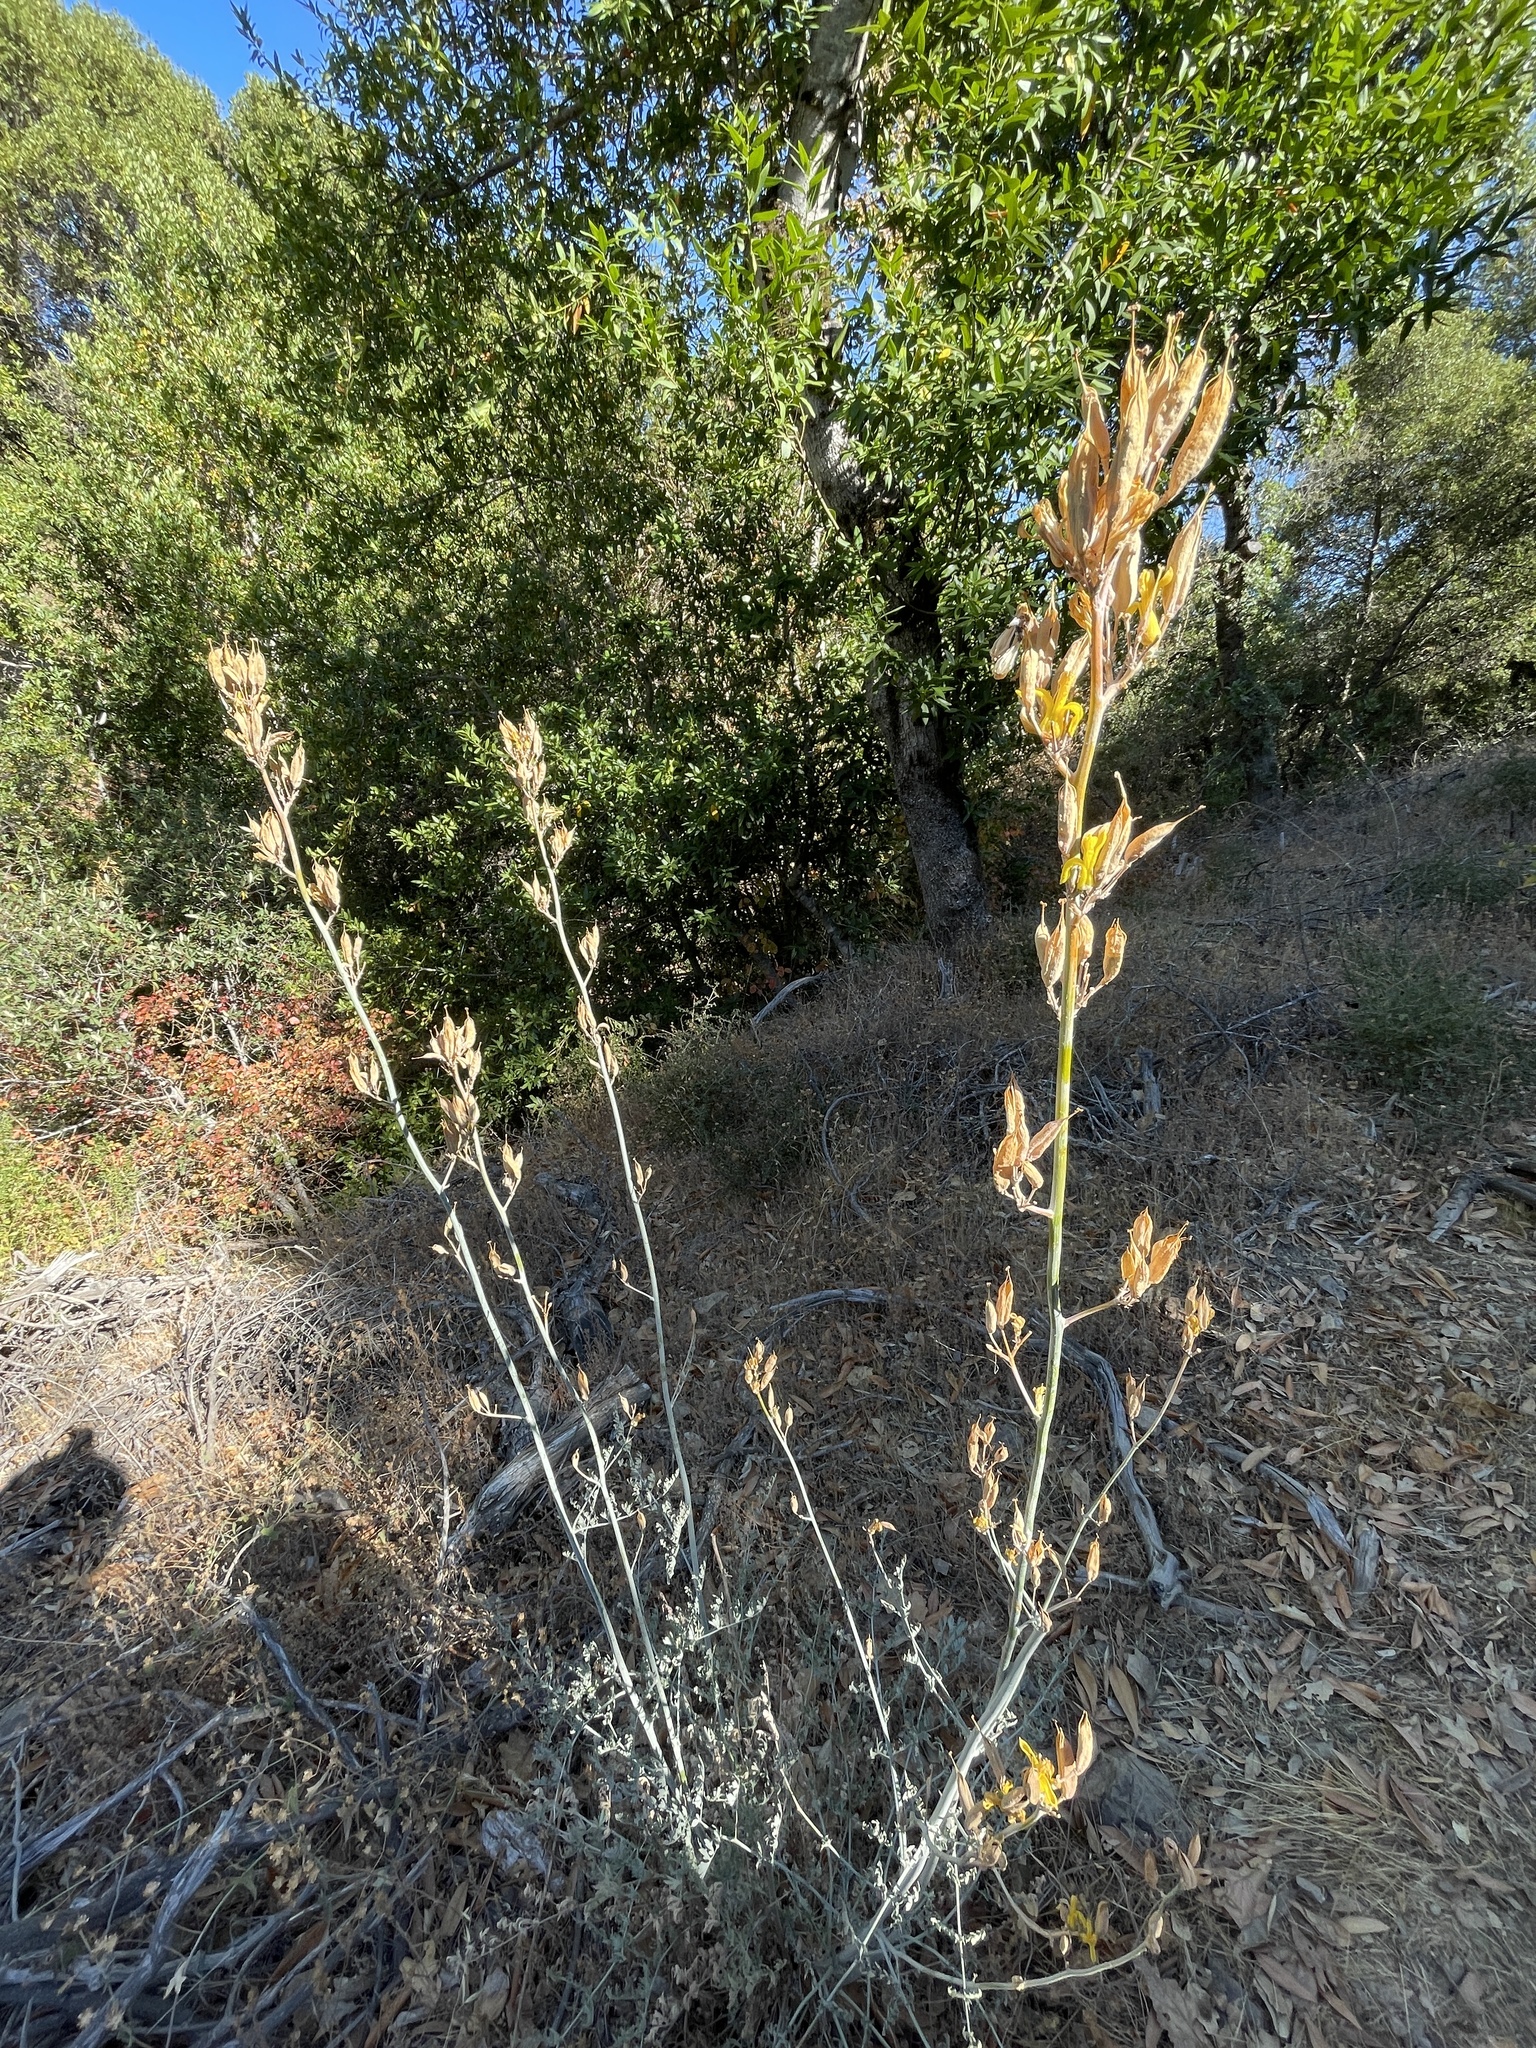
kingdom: Plantae
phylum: Tracheophyta
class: Magnoliopsida
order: Ranunculales
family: Papaveraceae
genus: Ehrendorferia
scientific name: Ehrendorferia chrysantha
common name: Golden eardrops
